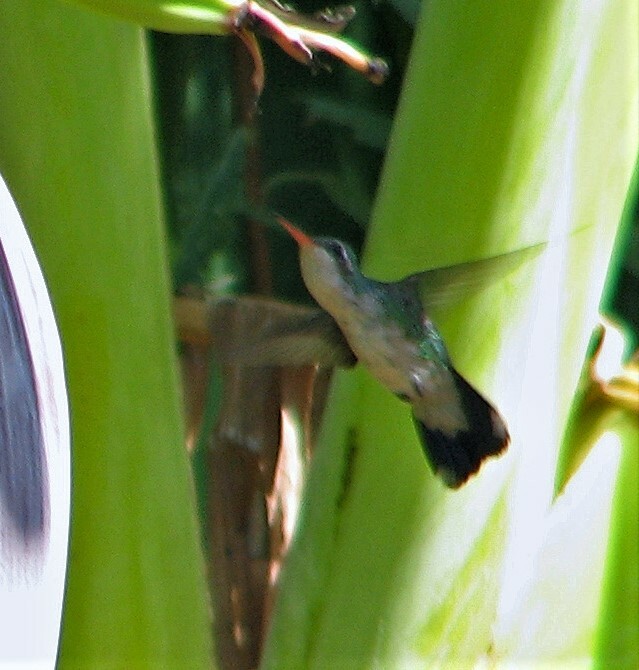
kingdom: Animalia
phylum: Chordata
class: Aves
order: Apodiformes
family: Trochilidae
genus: Chlorostilbon
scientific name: Chlorostilbon lucidus
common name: Glittering-bellied emerald
